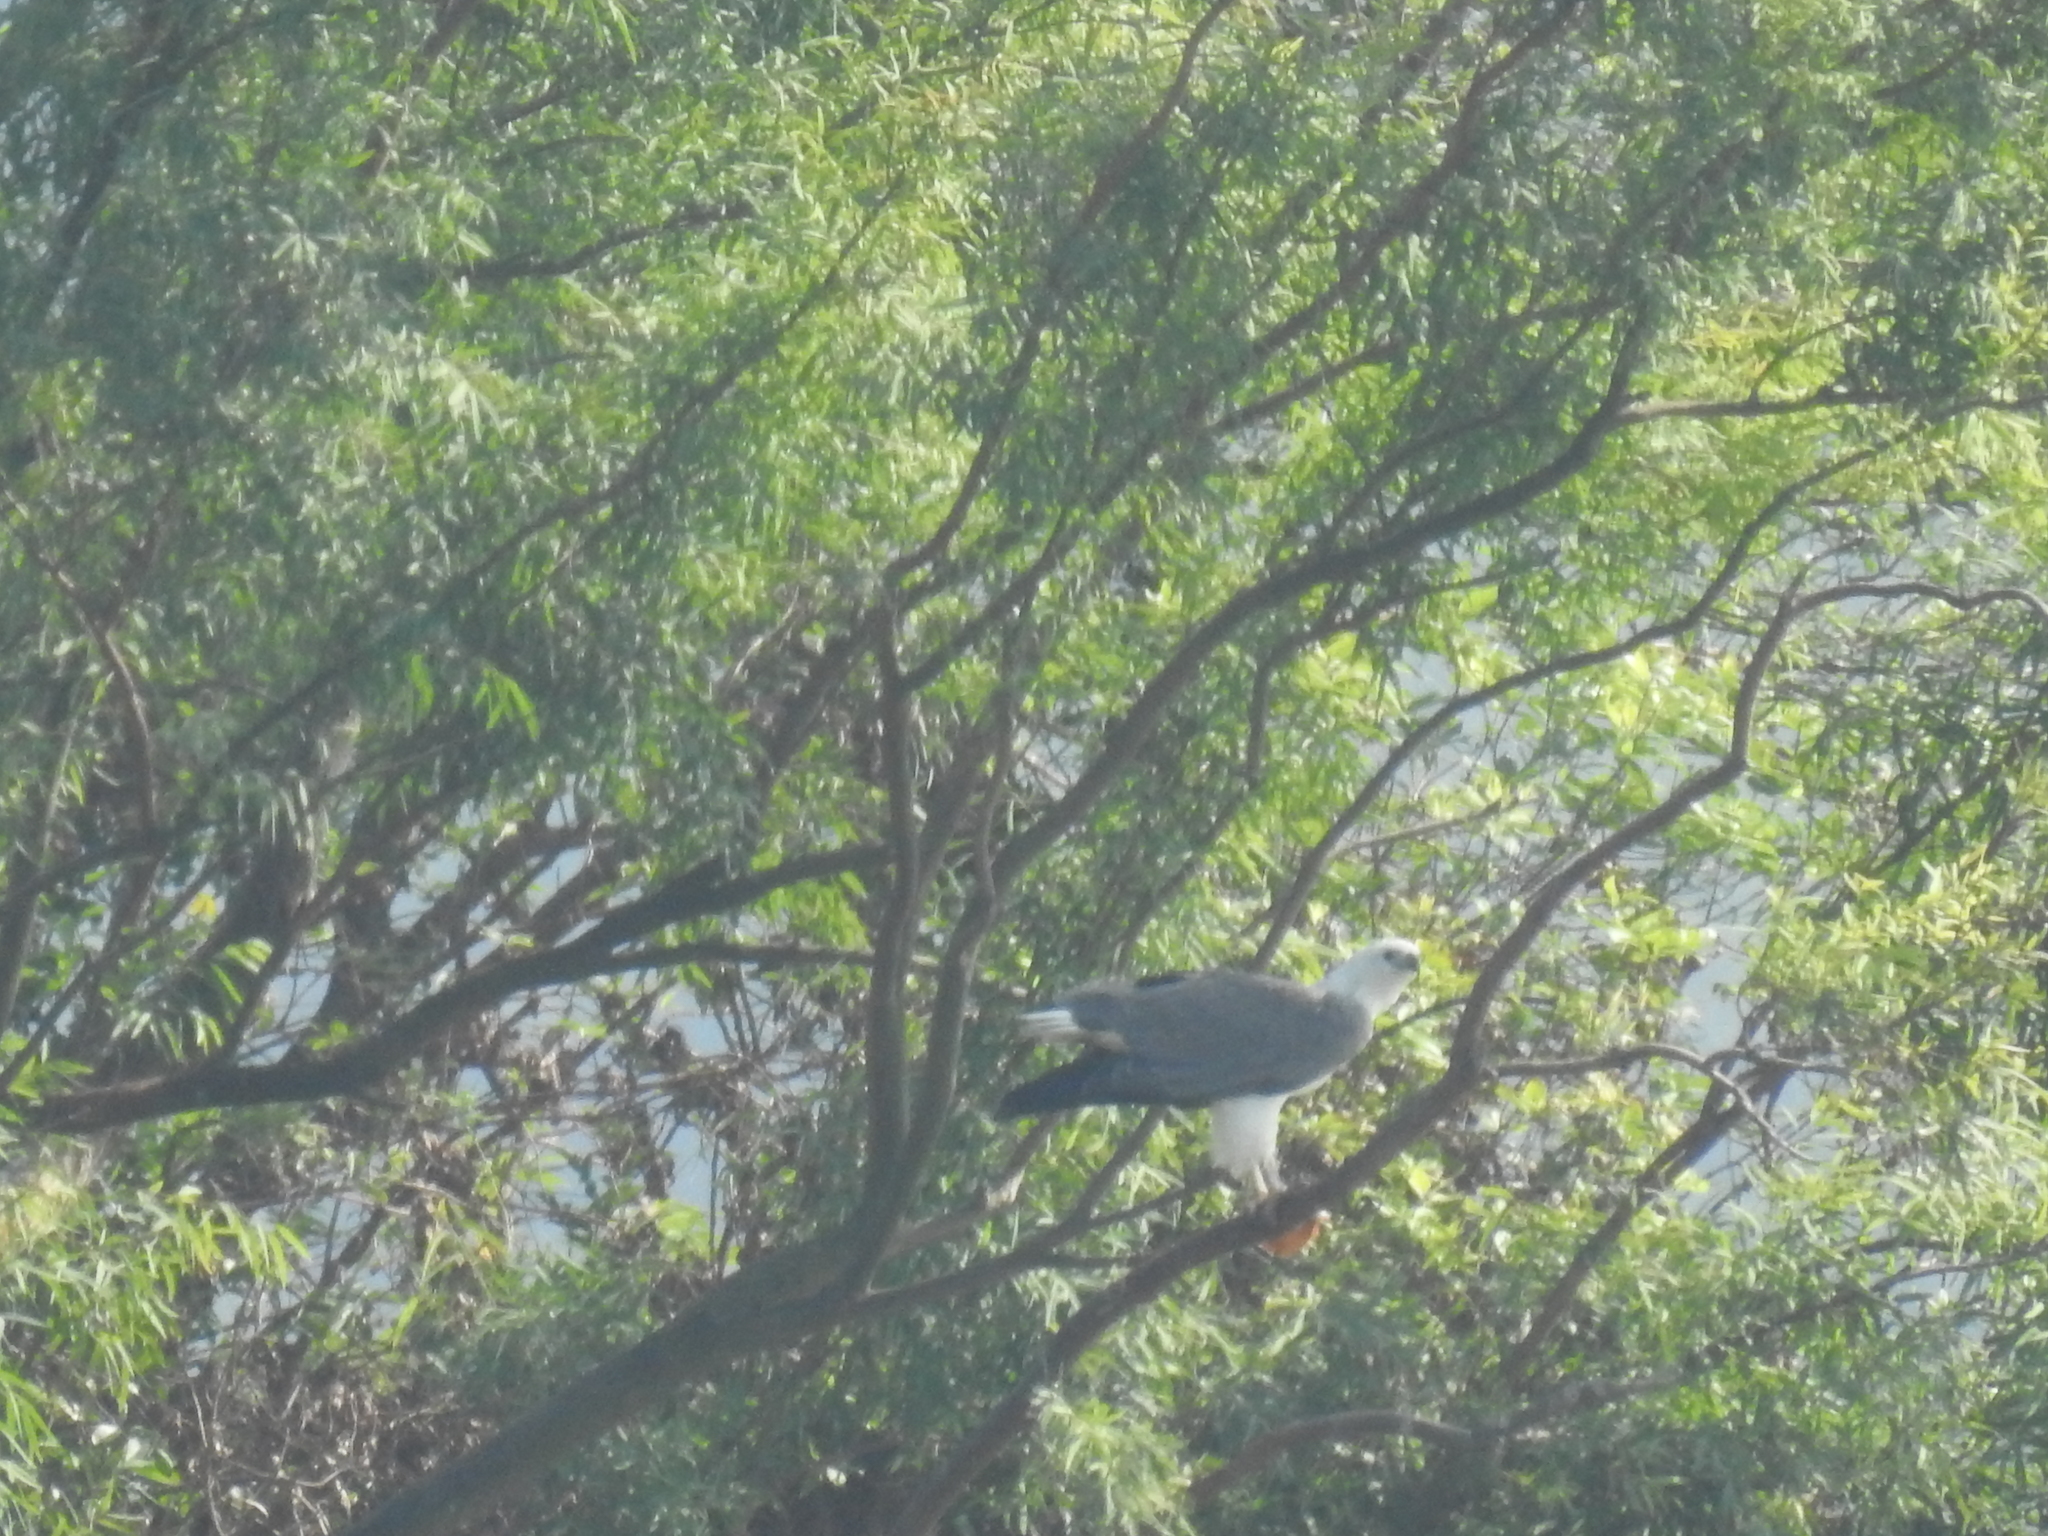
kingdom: Animalia
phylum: Chordata
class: Aves
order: Accipitriformes
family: Accipitridae
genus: Haliaeetus
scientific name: Haliaeetus leucogaster
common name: White-bellied sea eagle
